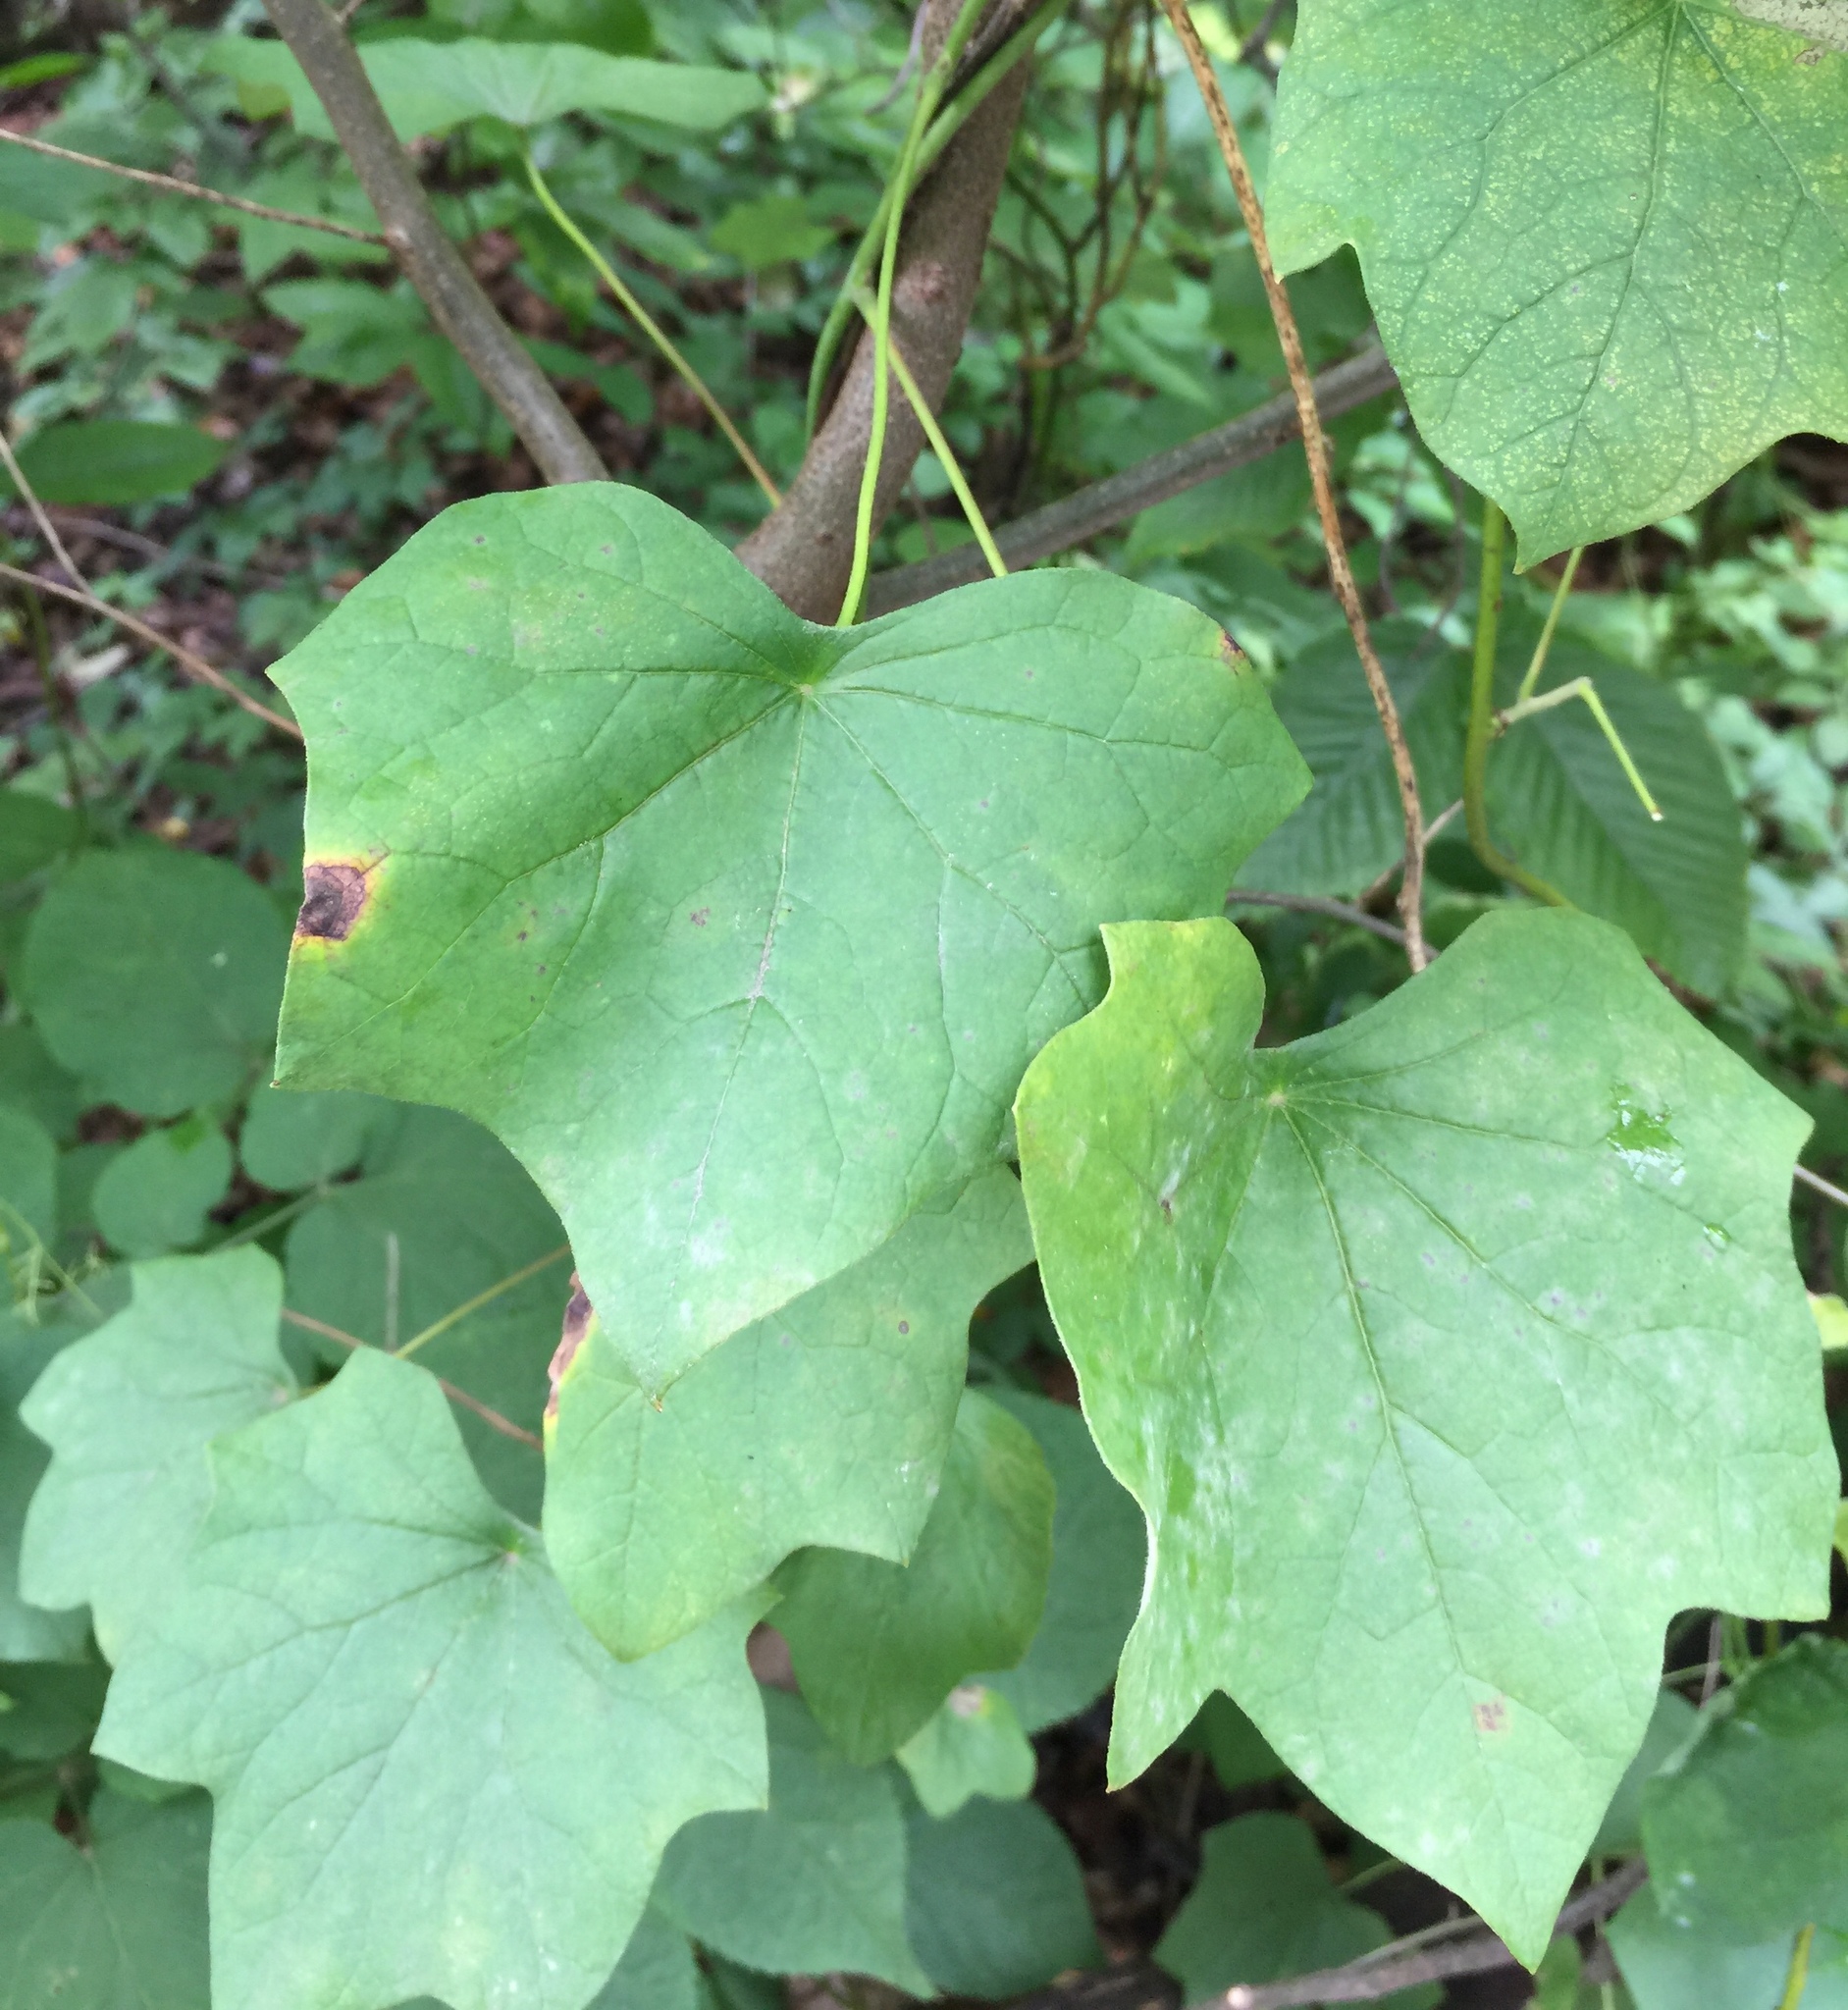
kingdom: Plantae
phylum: Tracheophyta
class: Magnoliopsida
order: Ranunculales
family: Menispermaceae
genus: Menispermum
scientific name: Menispermum canadense
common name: Moonseed
